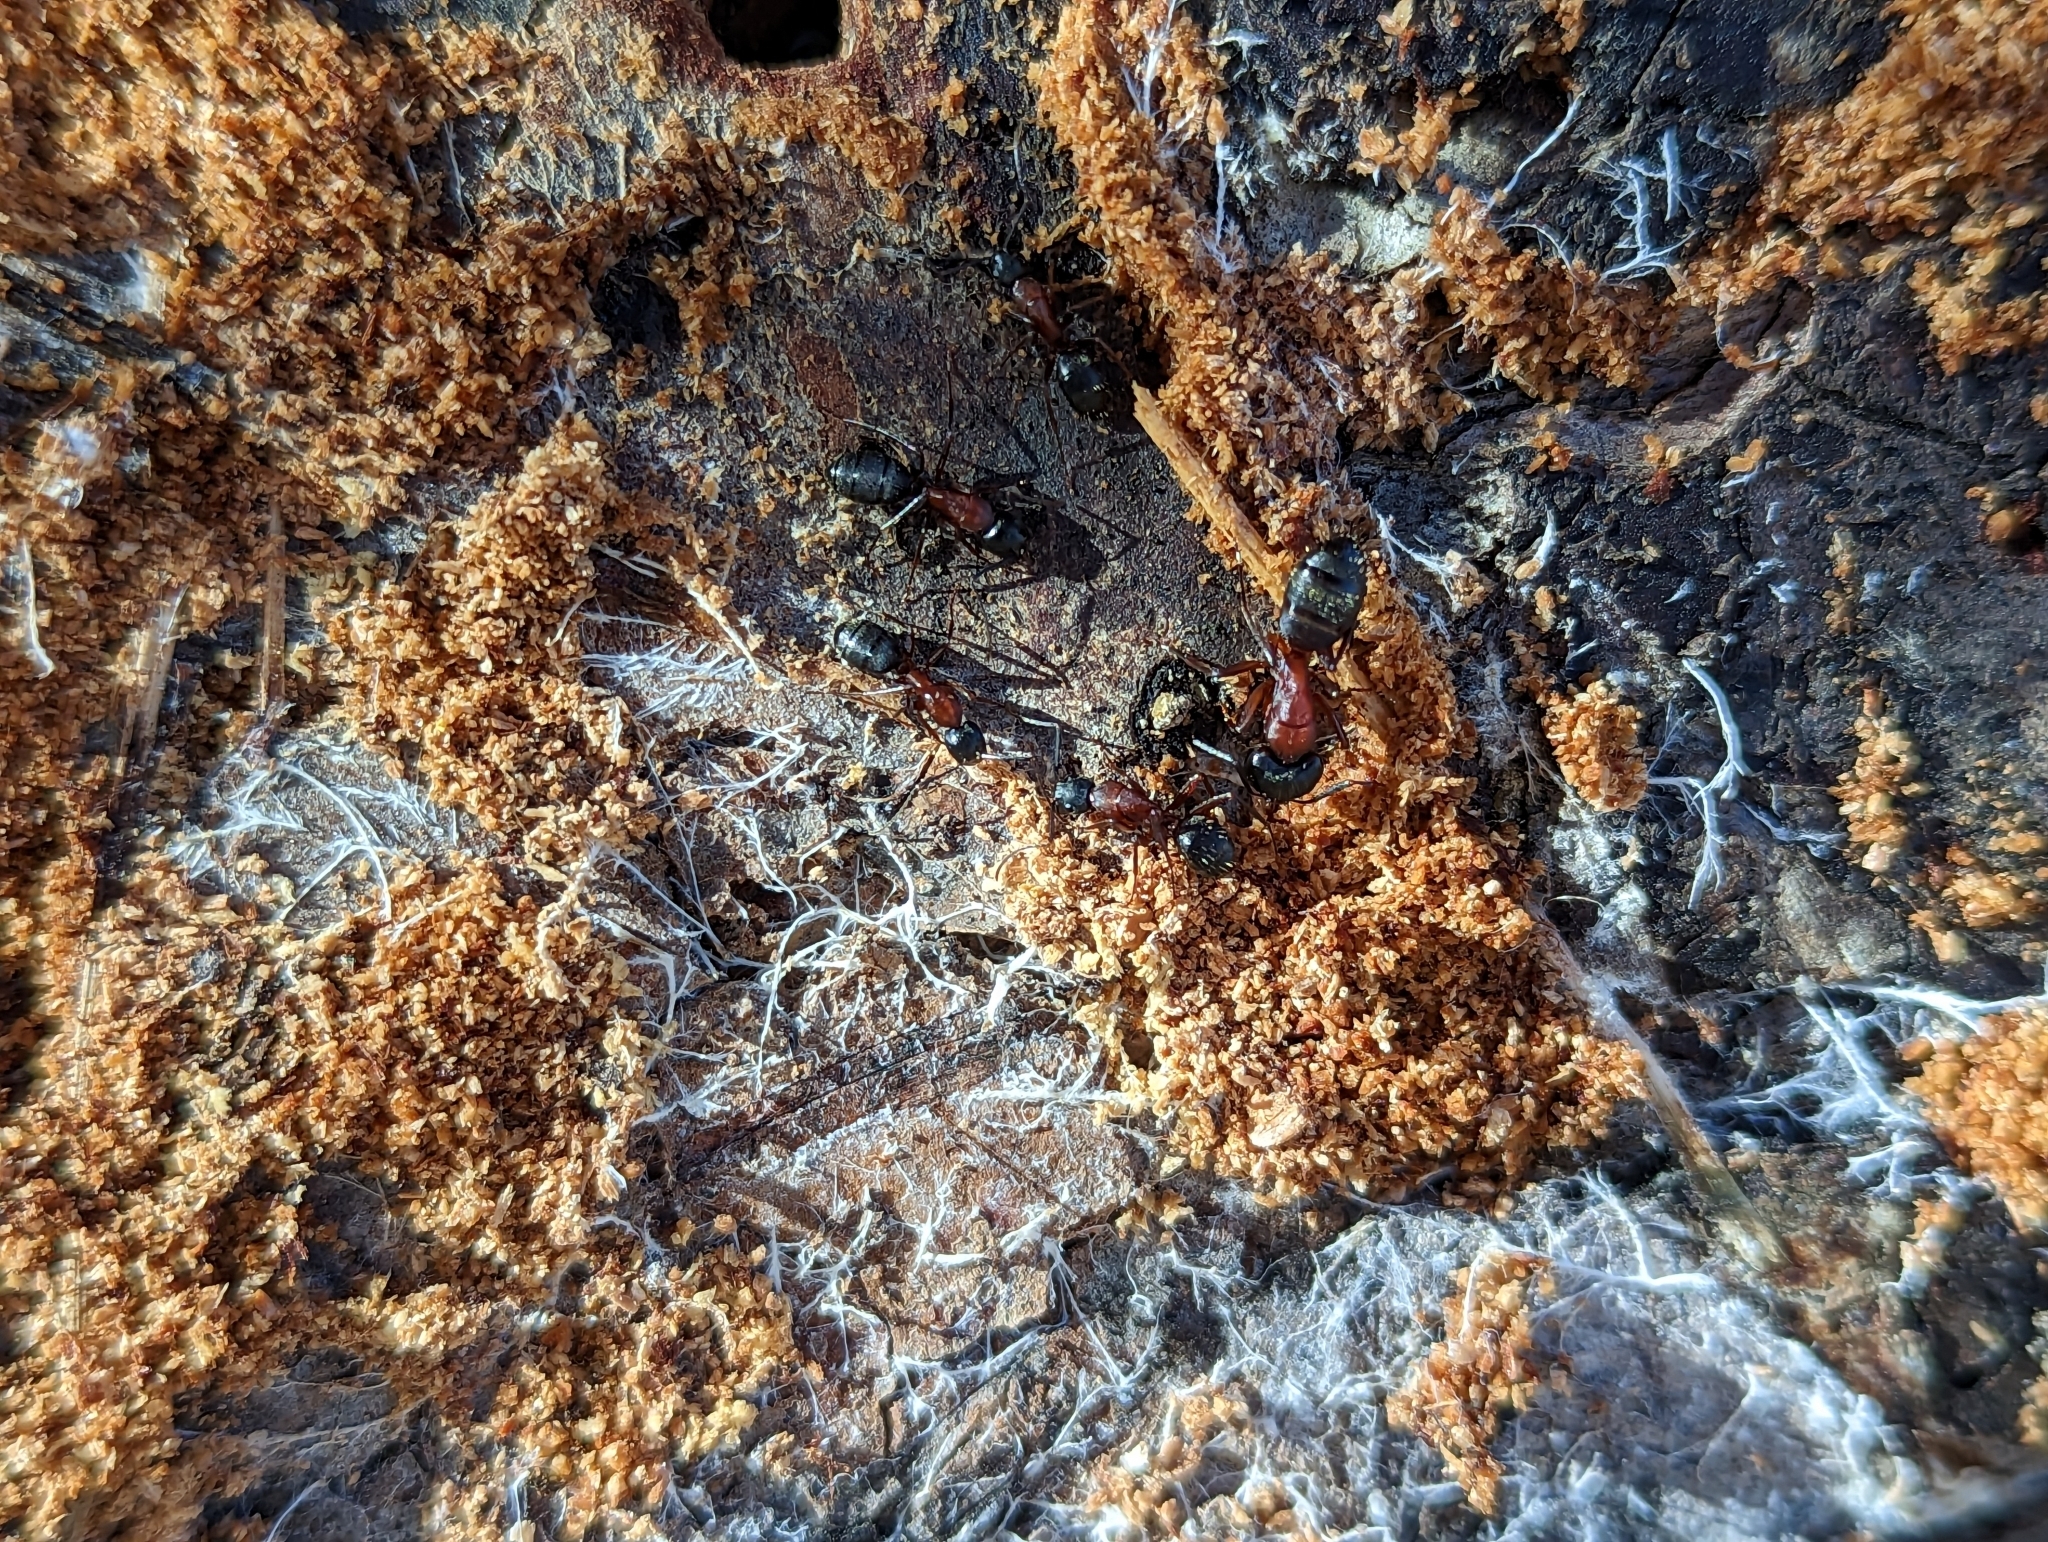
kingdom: Animalia
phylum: Arthropoda
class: Insecta
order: Hymenoptera
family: Formicidae
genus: Camponotus
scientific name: Camponotus vicinus
